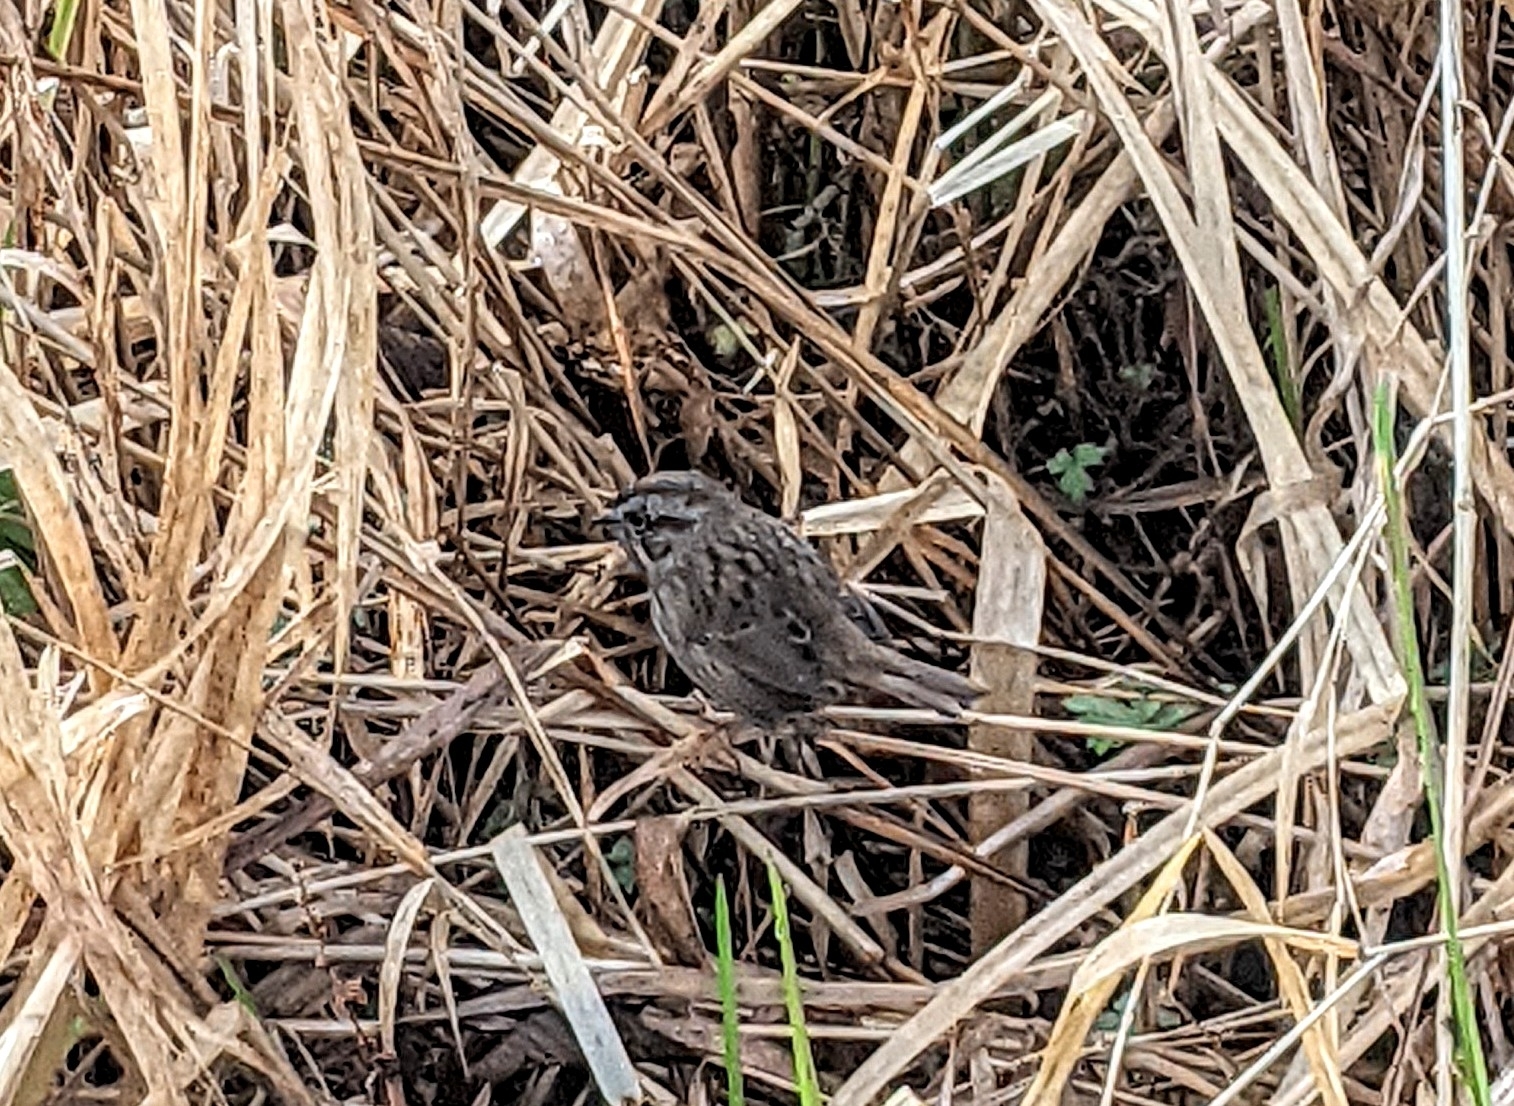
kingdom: Animalia
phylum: Chordata
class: Aves
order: Passeriformes
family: Passerellidae
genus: Melospiza
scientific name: Melospiza melodia
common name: Song sparrow
